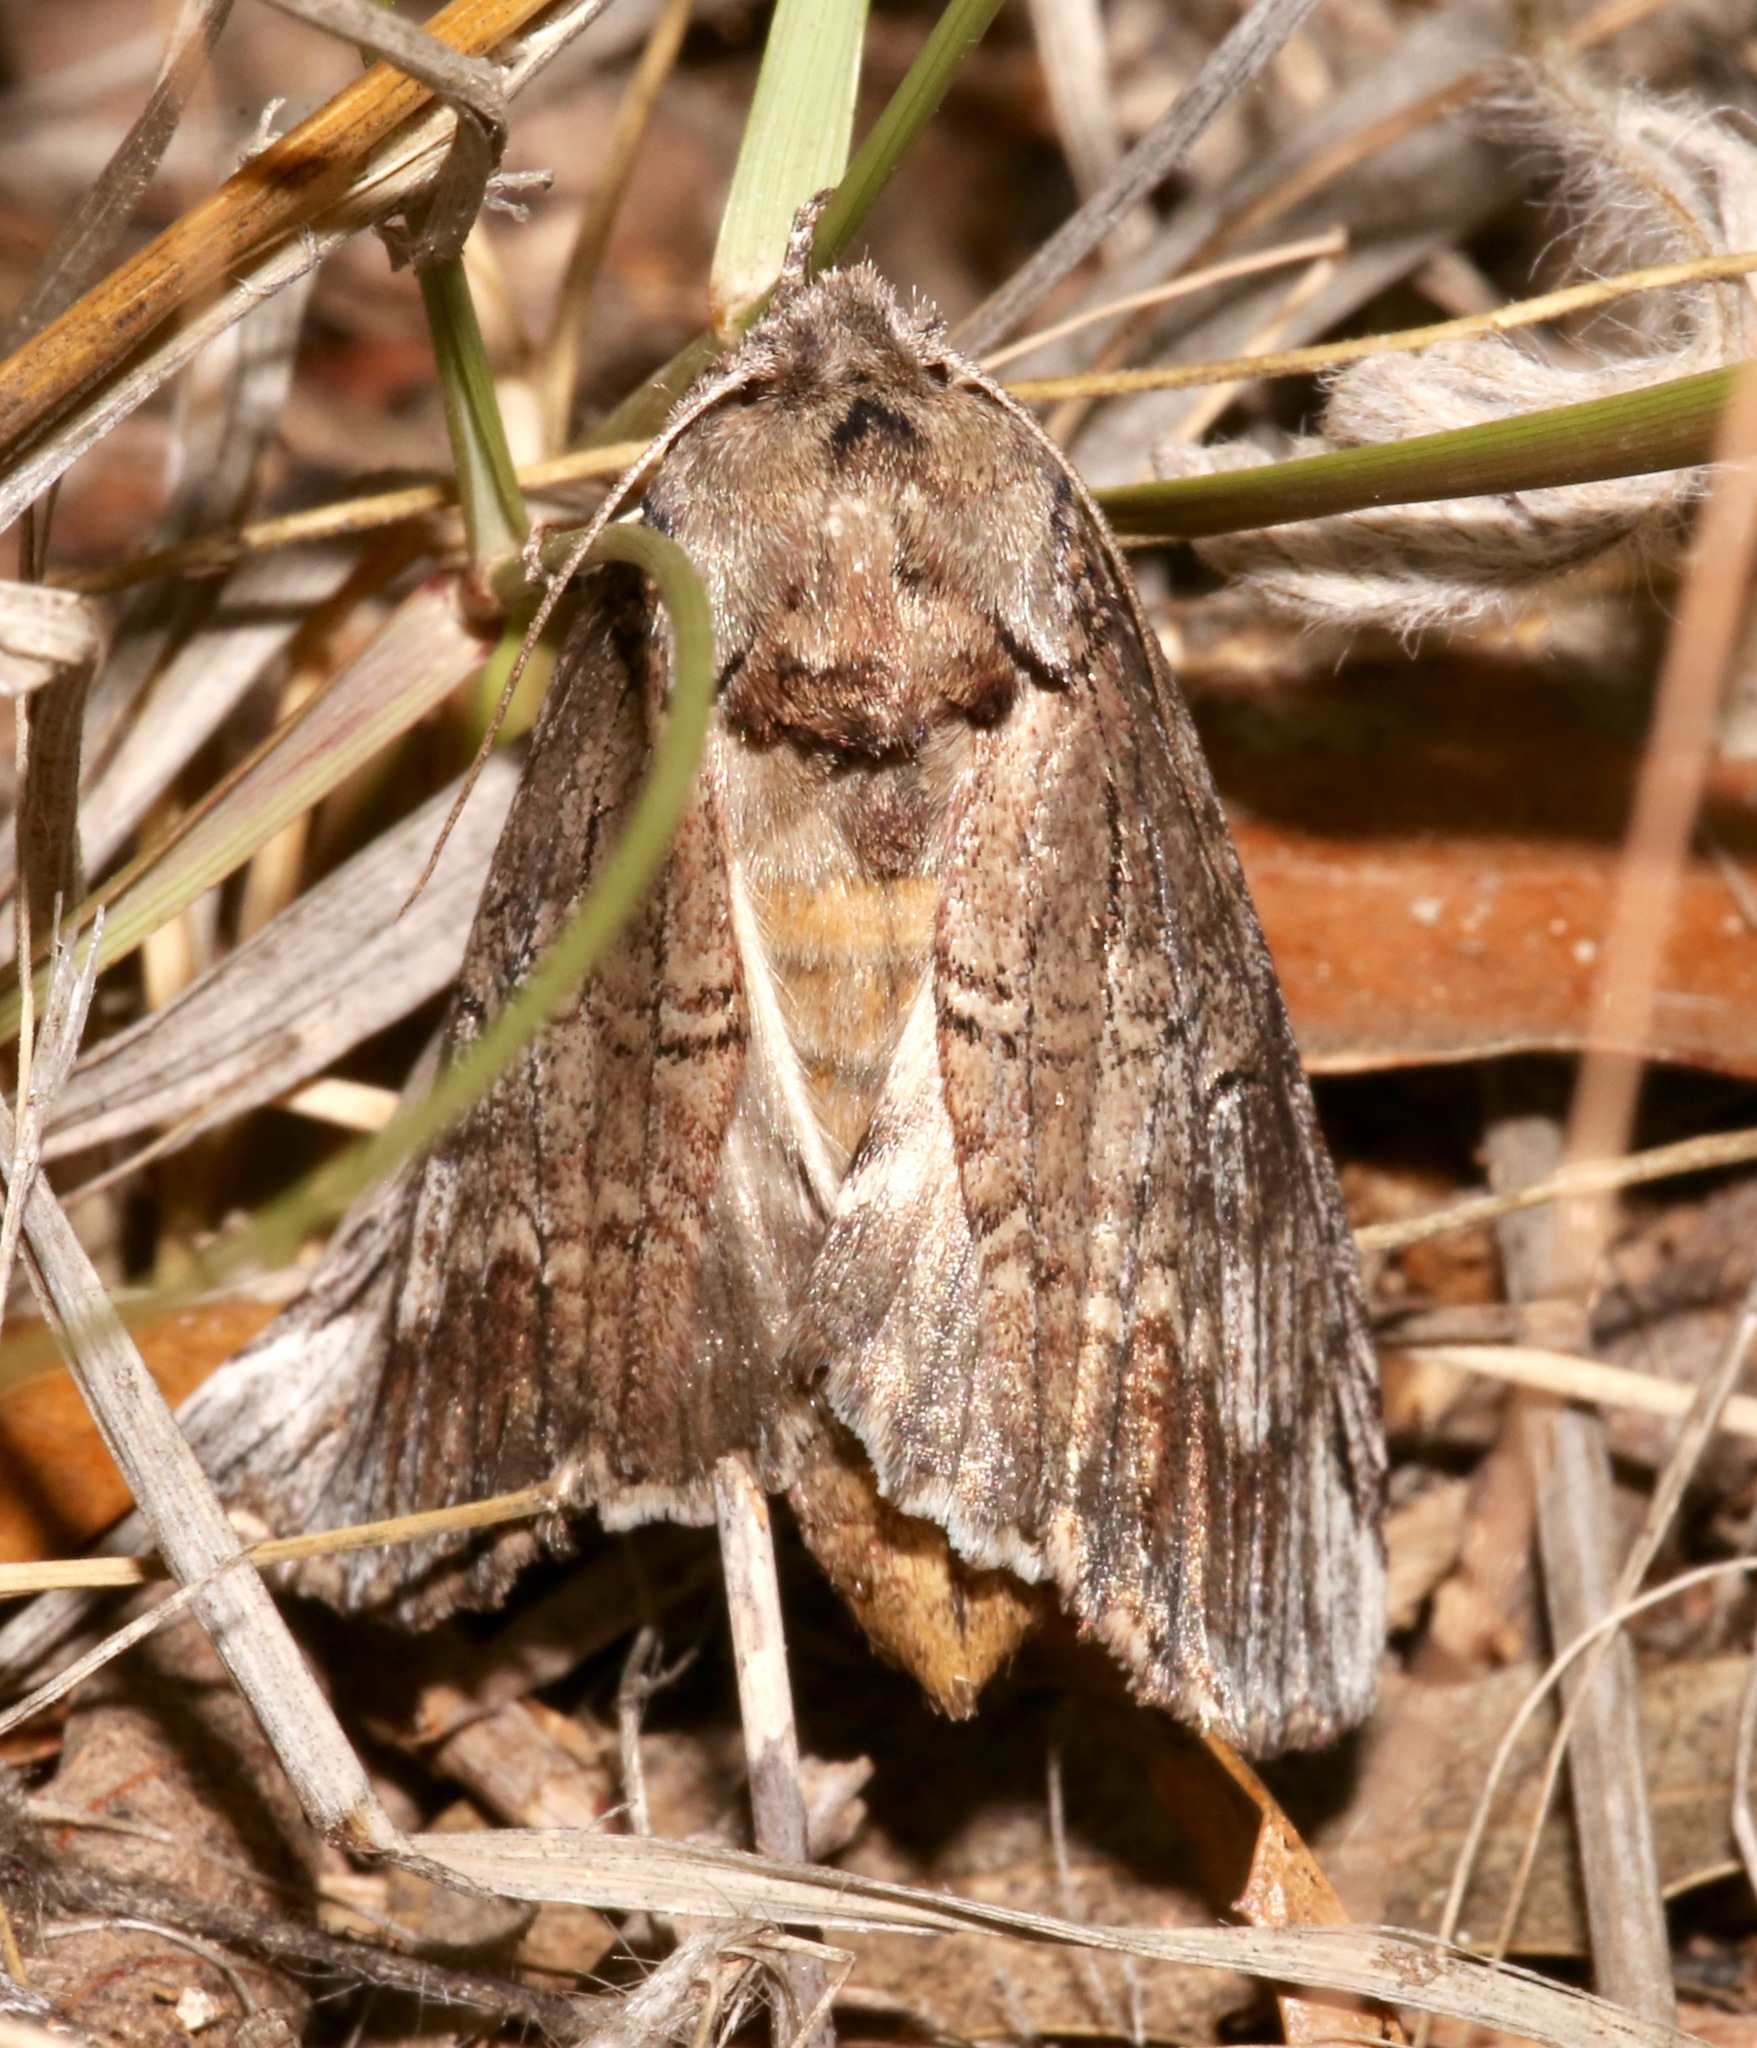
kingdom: Animalia
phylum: Arthropoda
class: Insecta
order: Lepidoptera
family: Notodontidae
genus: Elasmia
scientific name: Elasmia packardii
